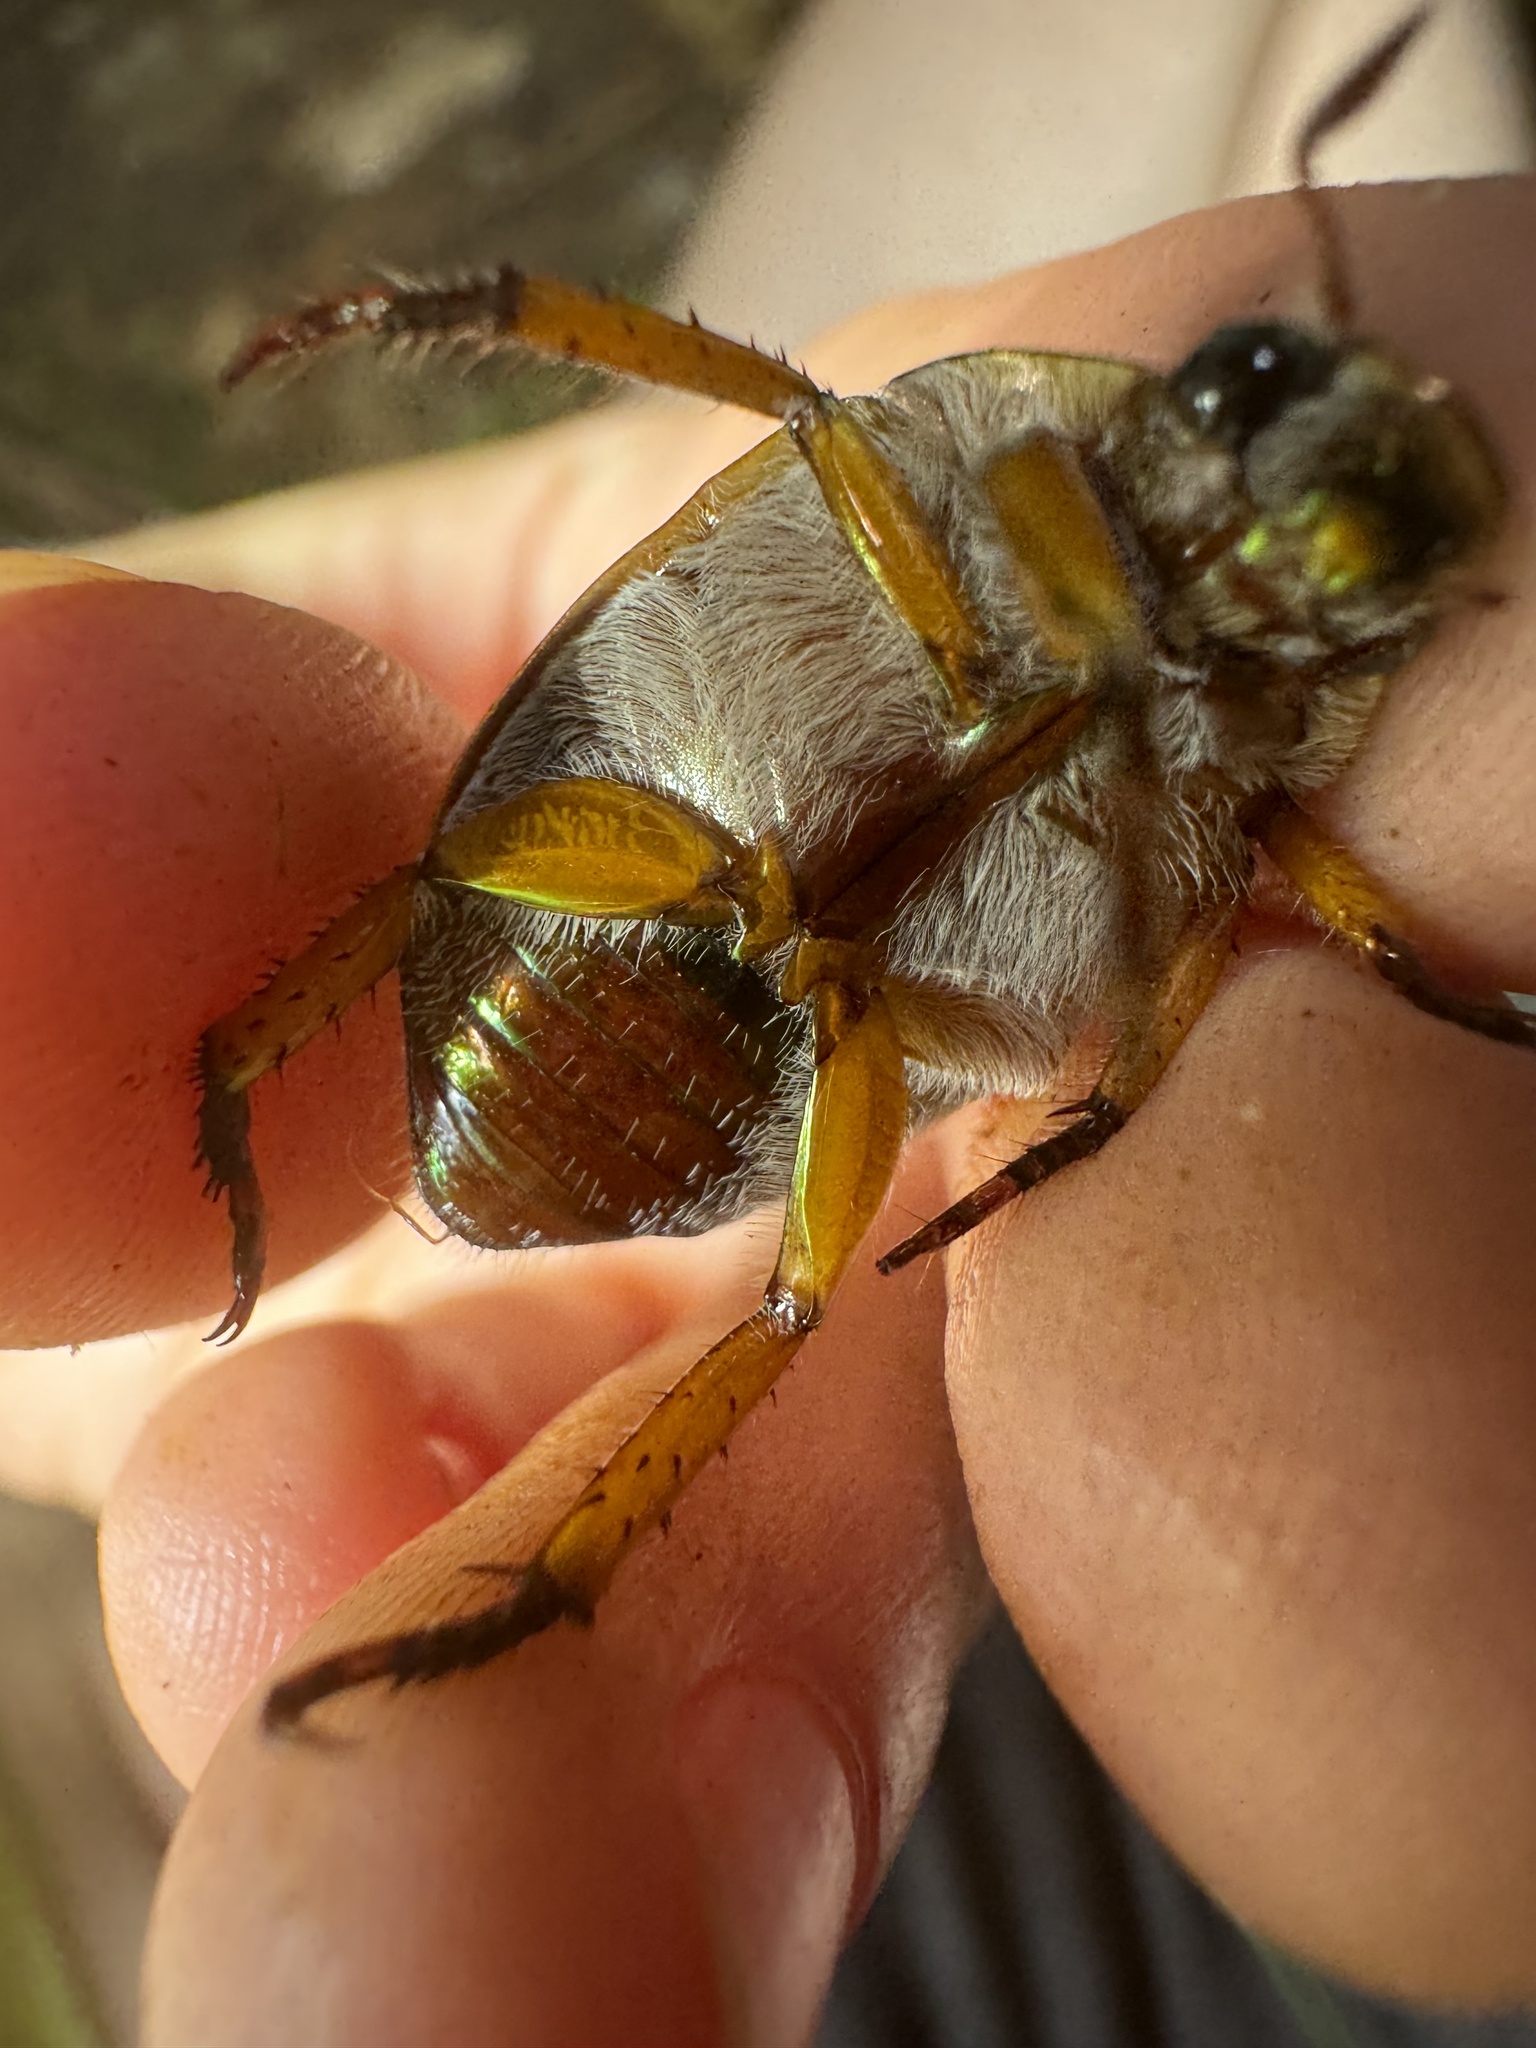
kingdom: Animalia
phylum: Arthropoda
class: Insecta
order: Coleoptera
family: Scarabaeidae
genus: Anoplognathus
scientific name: Anoplognathus porosus
